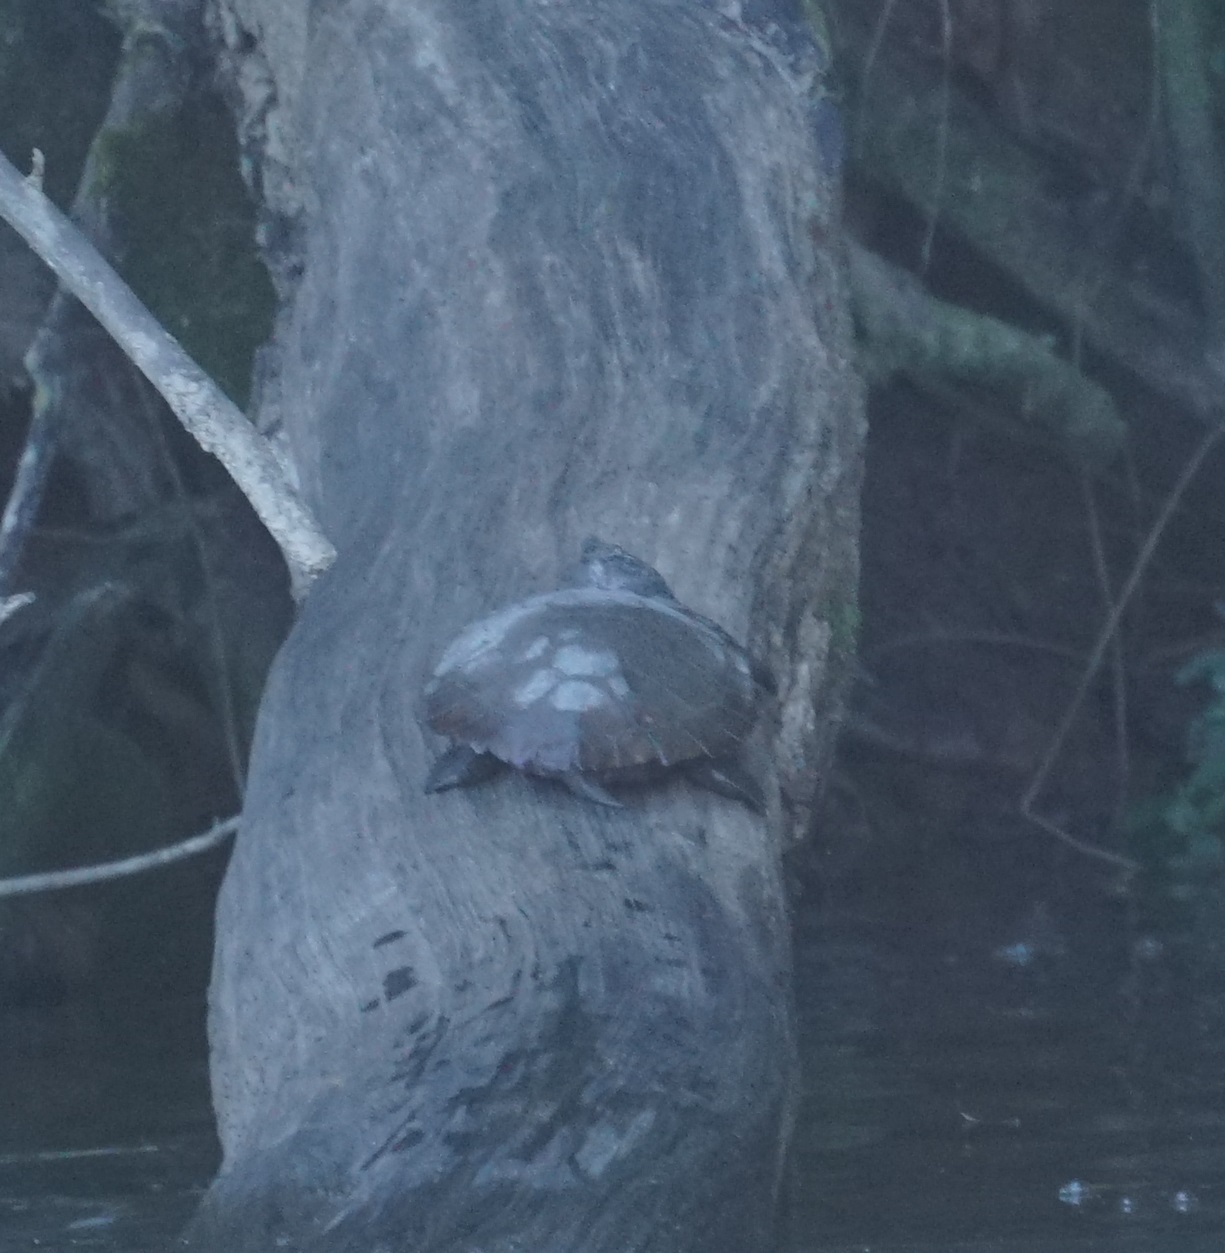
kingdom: Animalia
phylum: Chordata
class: Testudines
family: Chelidae
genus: Myuchelys
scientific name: Myuchelys latisternum
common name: Serrated snapping turtle
